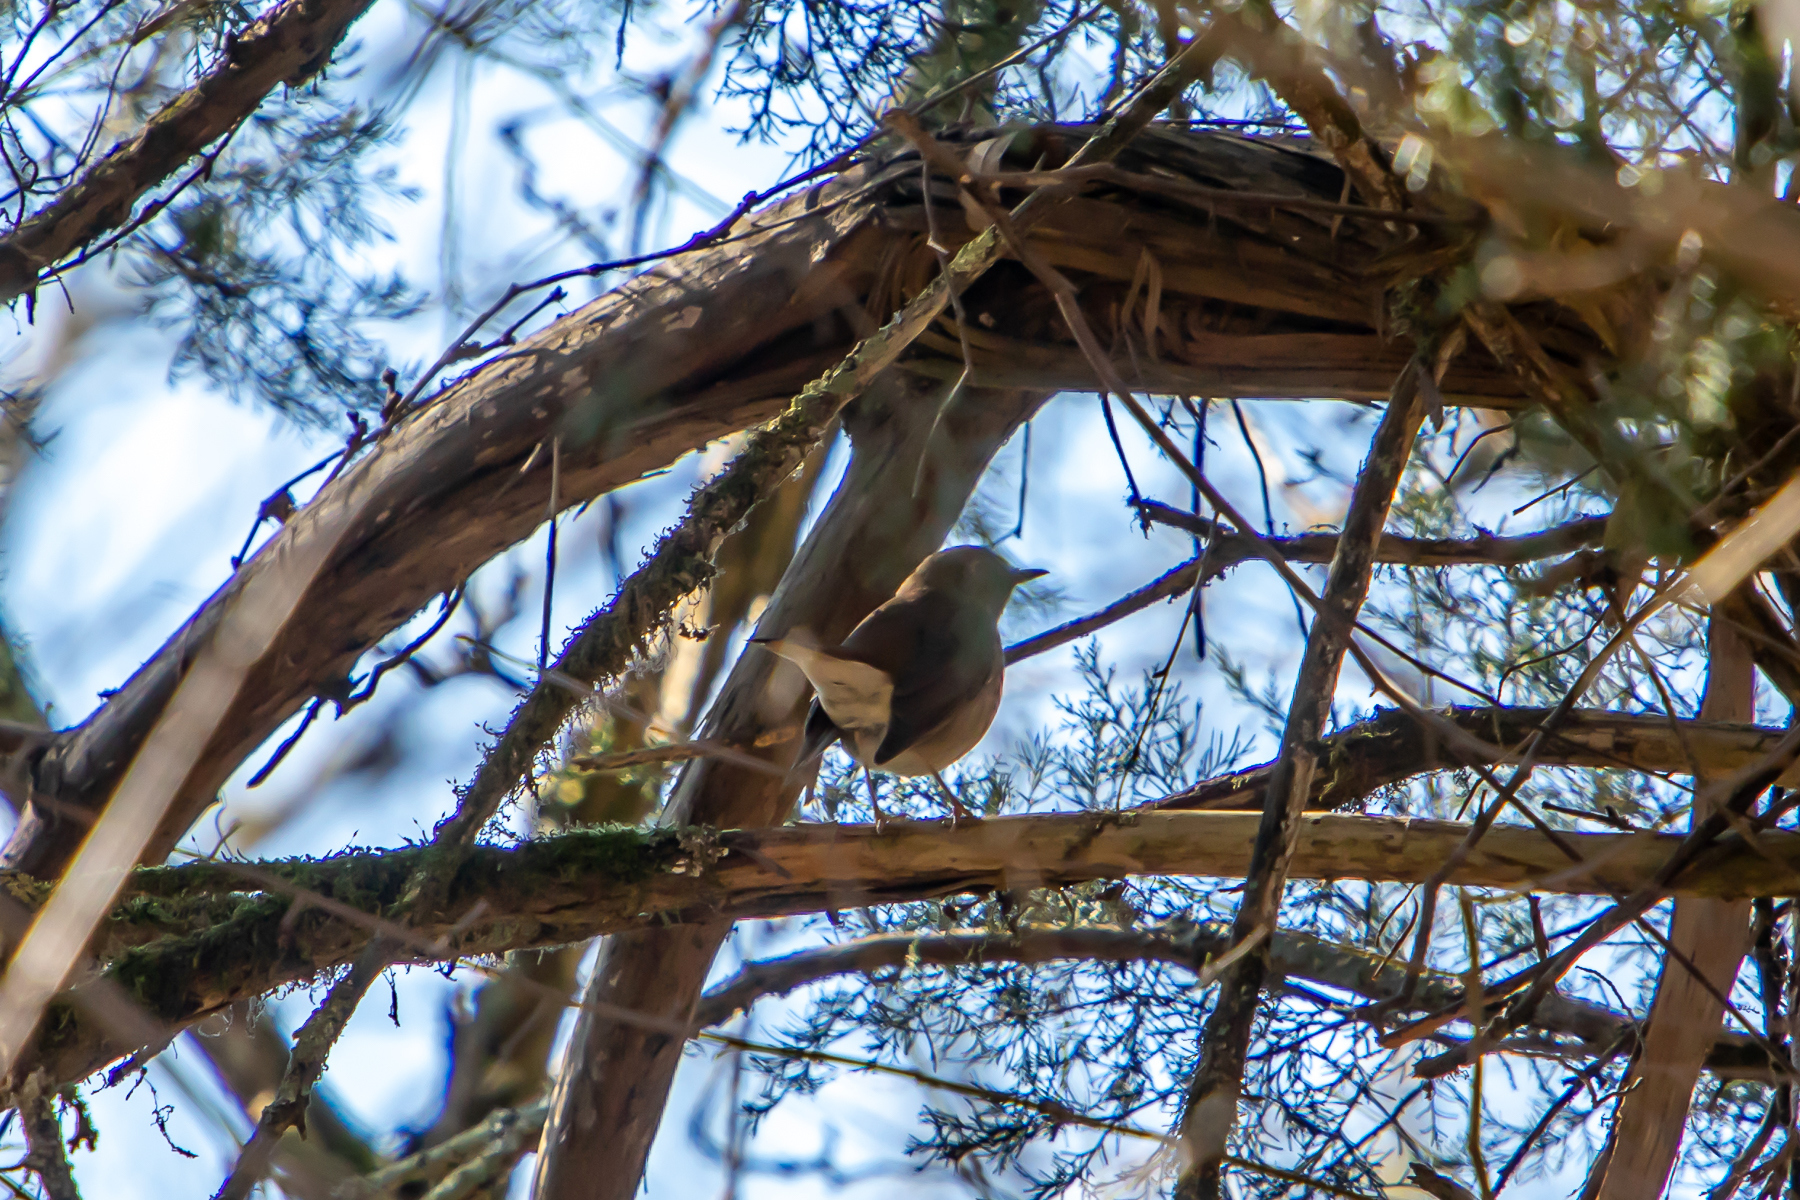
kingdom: Animalia
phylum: Chordata
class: Aves
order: Passeriformes
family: Turdidae
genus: Catharus
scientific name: Catharus guttatus
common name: Hermit thrush
